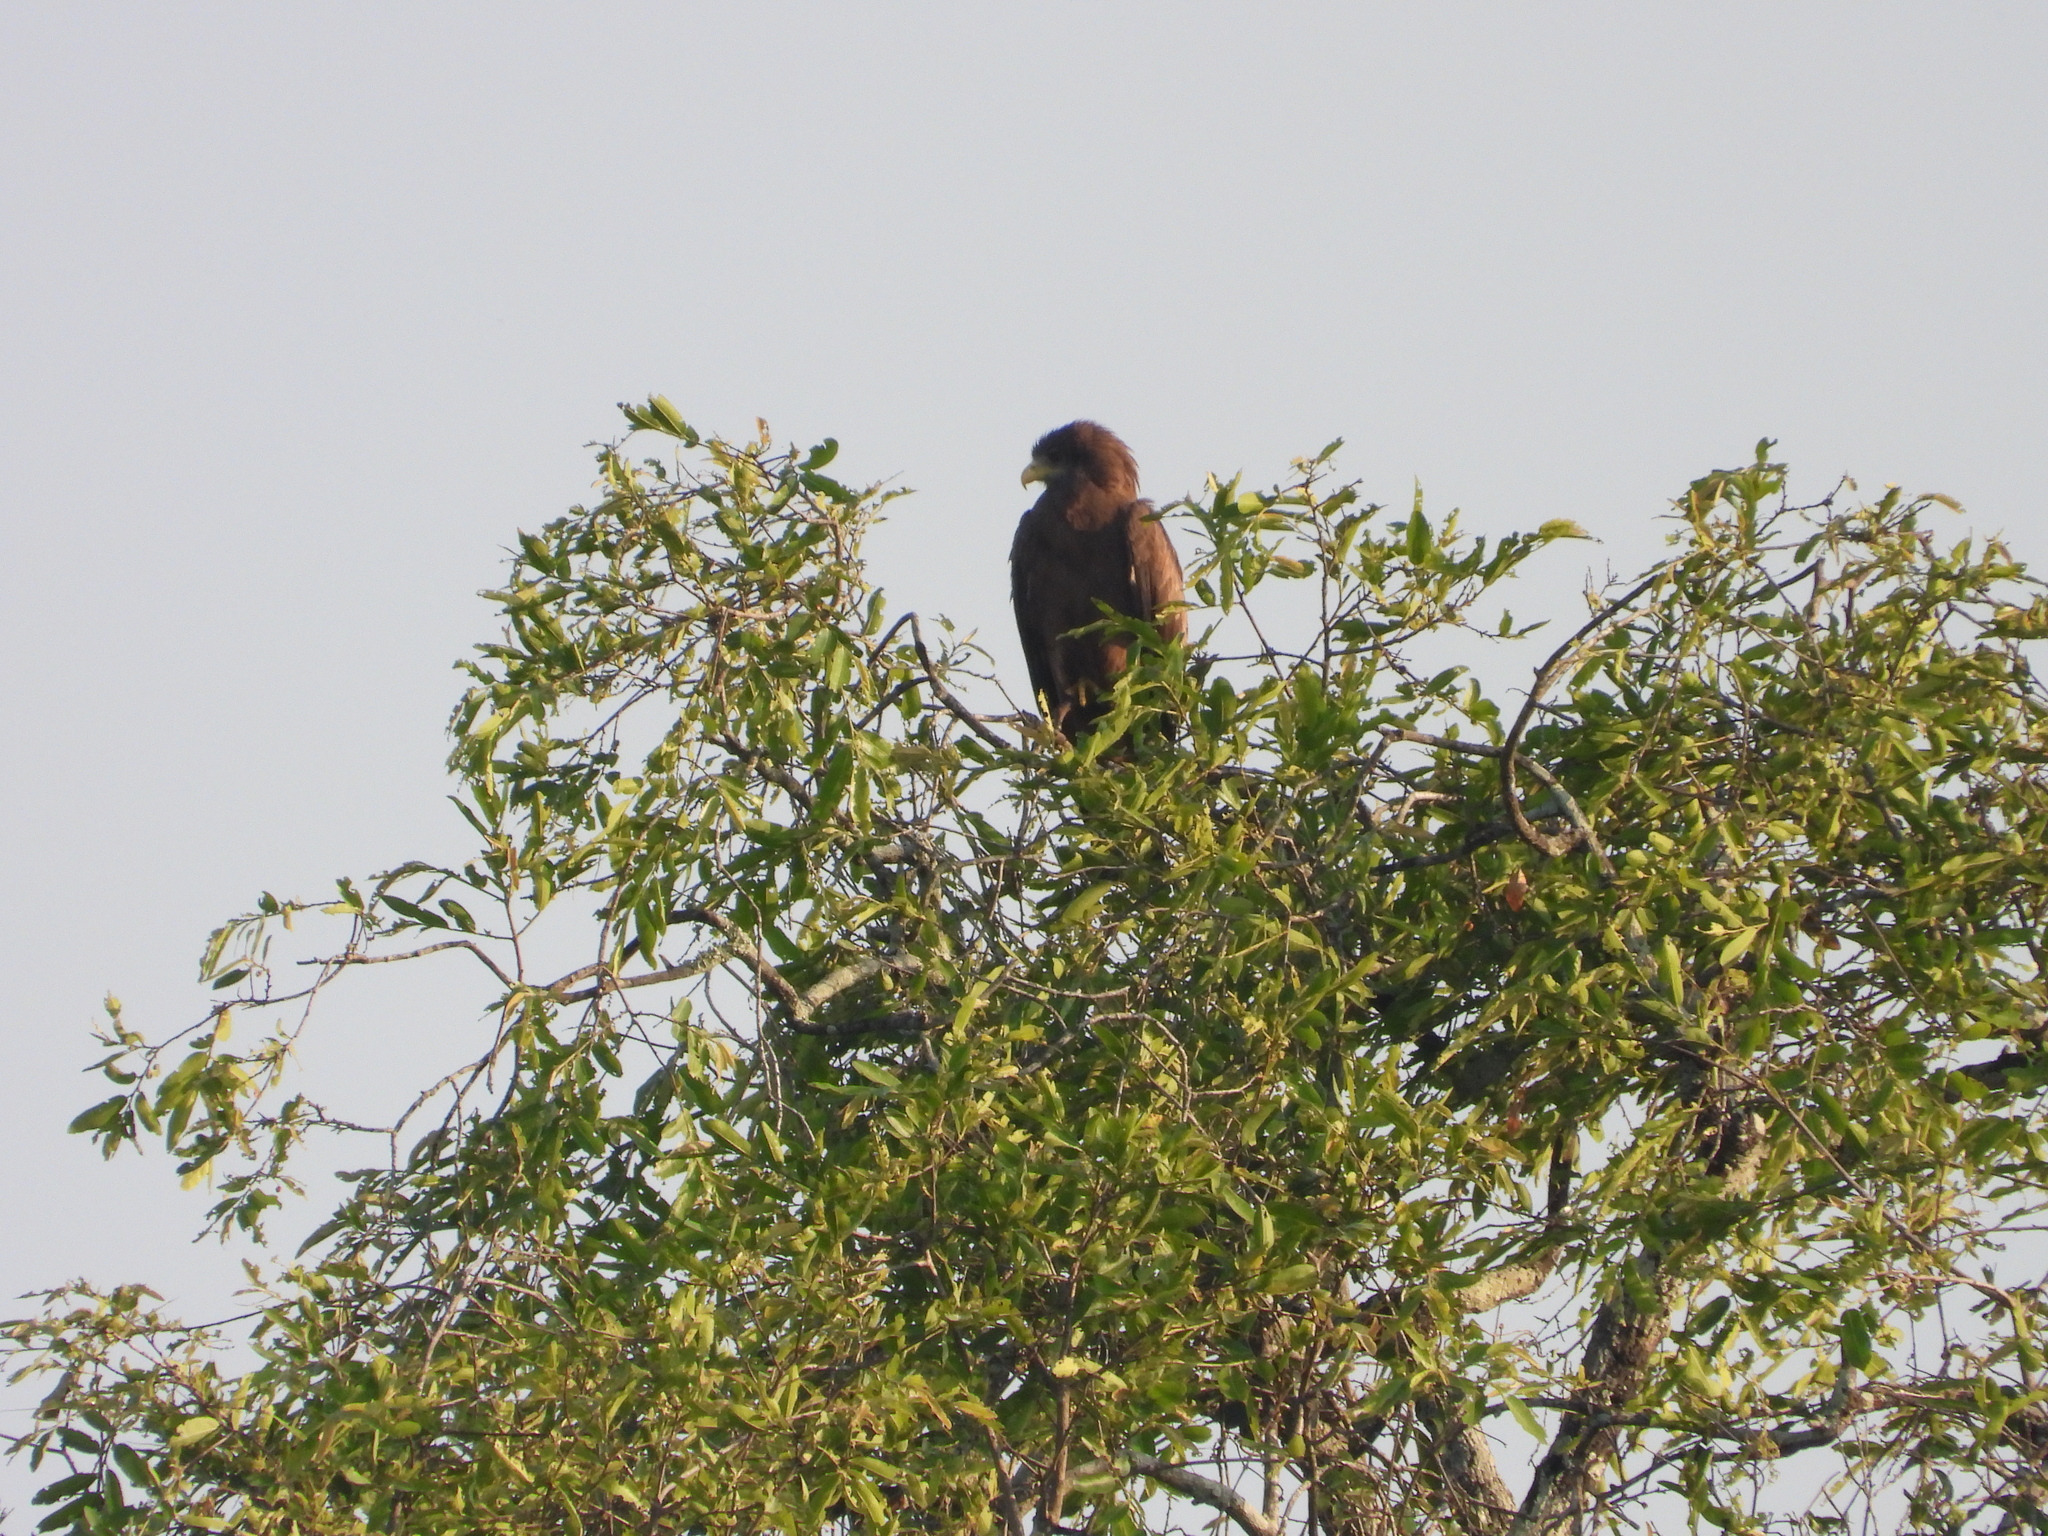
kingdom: Animalia
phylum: Chordata
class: Aves
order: Accipitriformes
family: Accipitridae
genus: Milvus
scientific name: Milvus migrans
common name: Black kite
